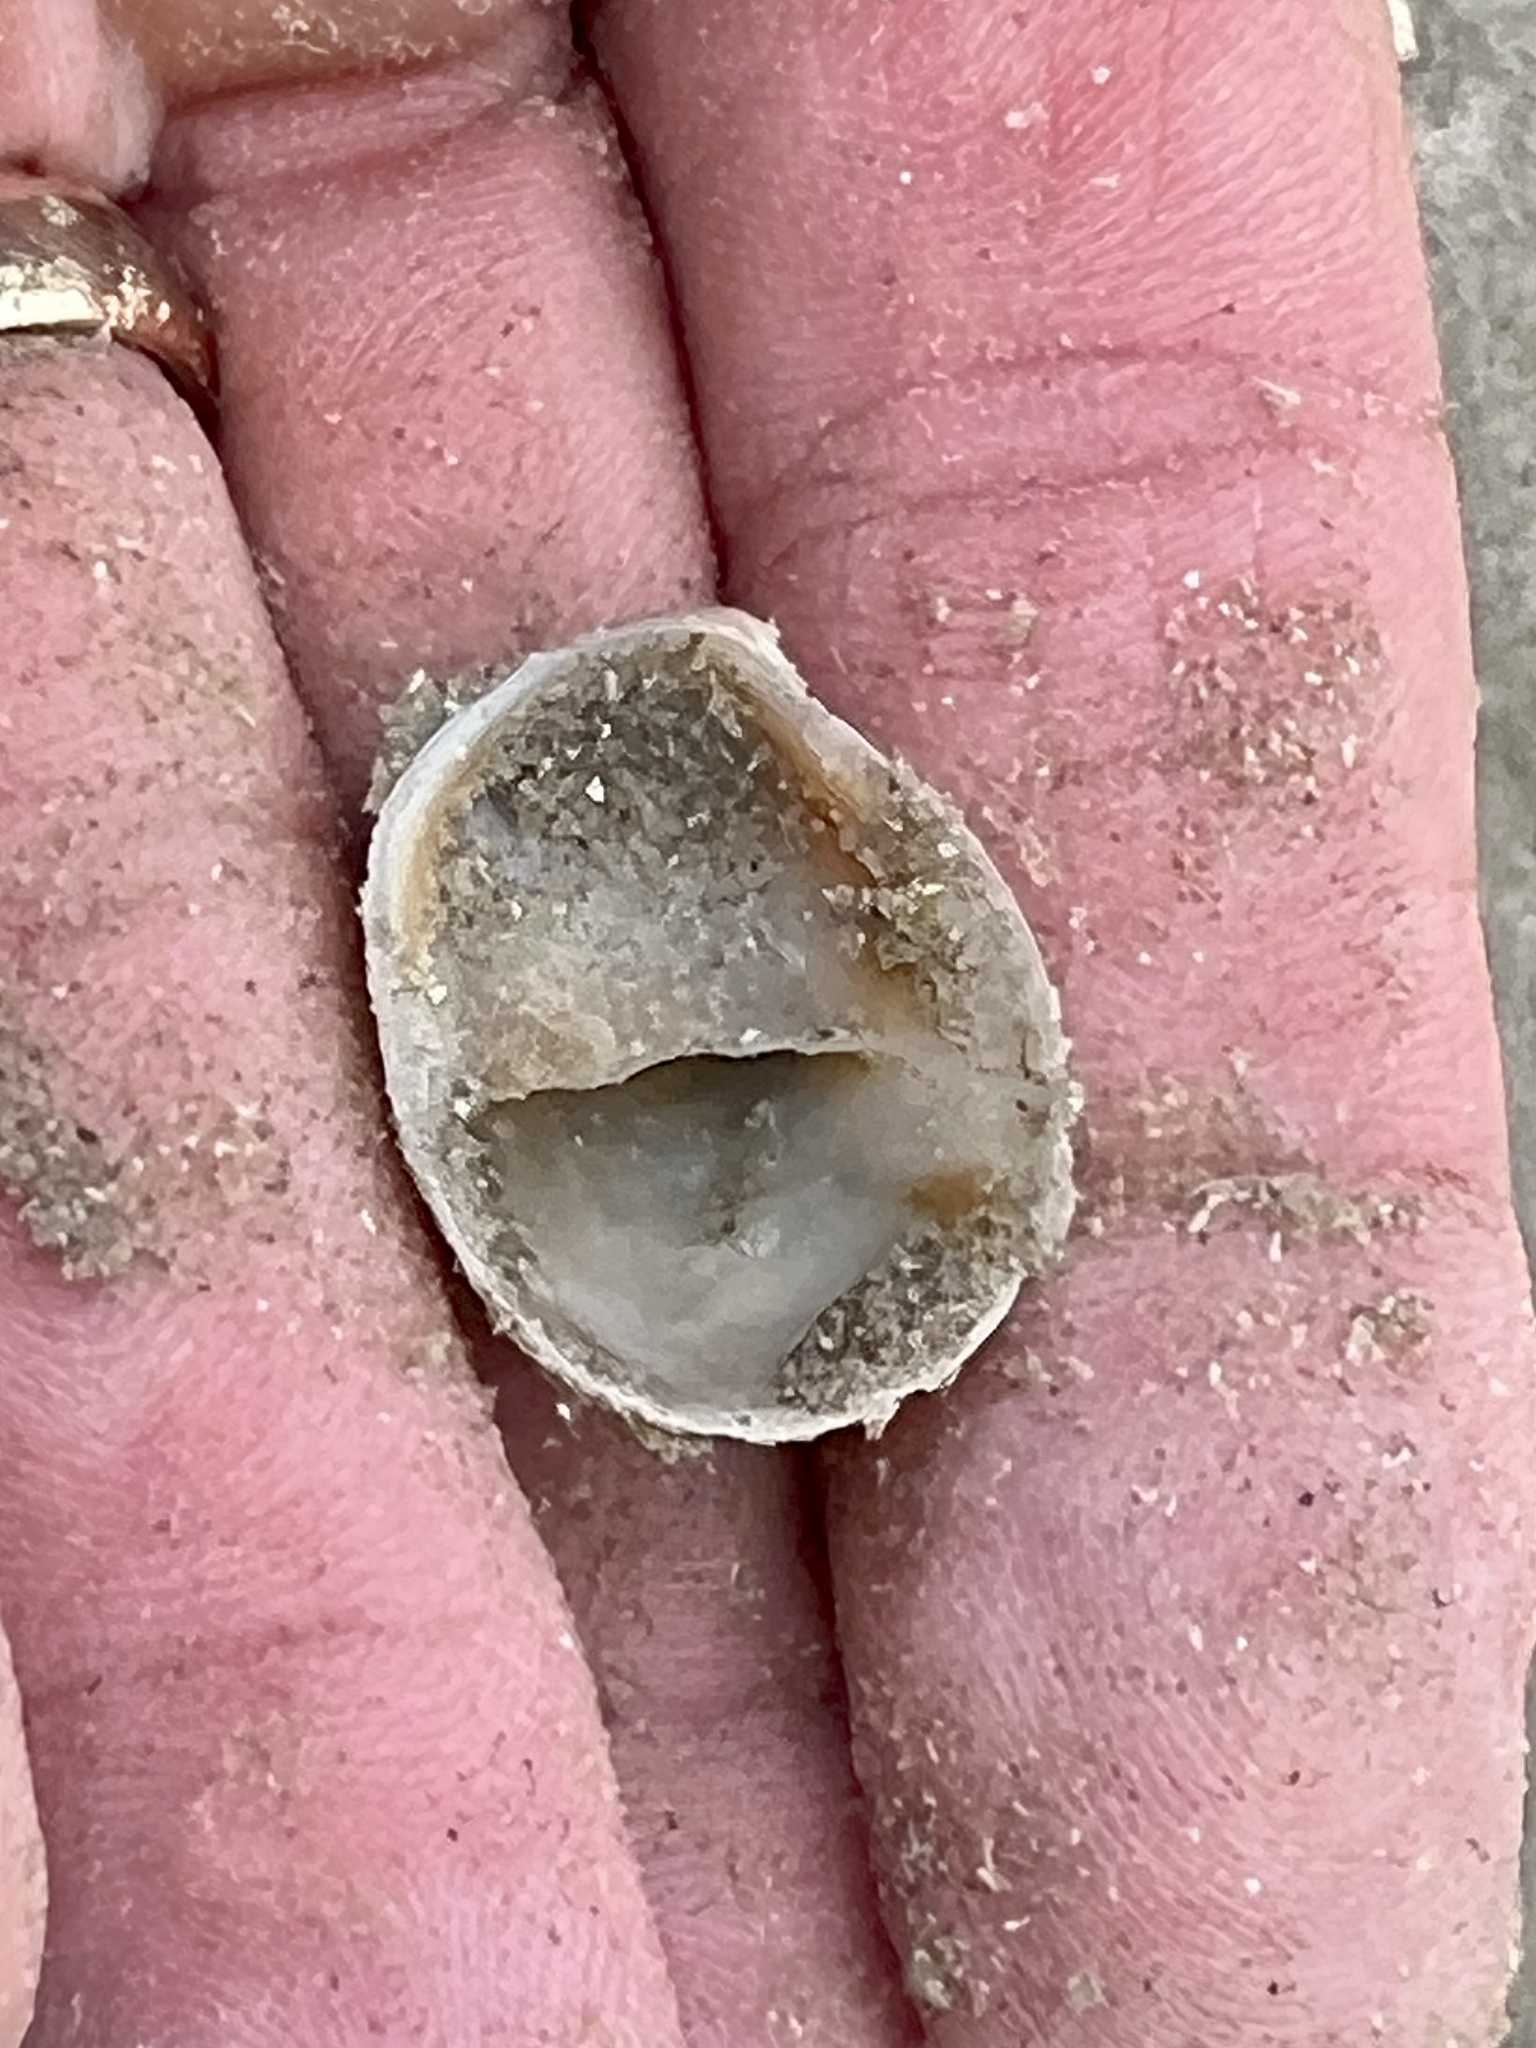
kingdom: Animalia
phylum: Mollusca
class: Gastropoda
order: Littorinimorpha
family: Calyptraeidae
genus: Crepidula
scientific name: Crepidula fornicata
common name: Slipper limpet
